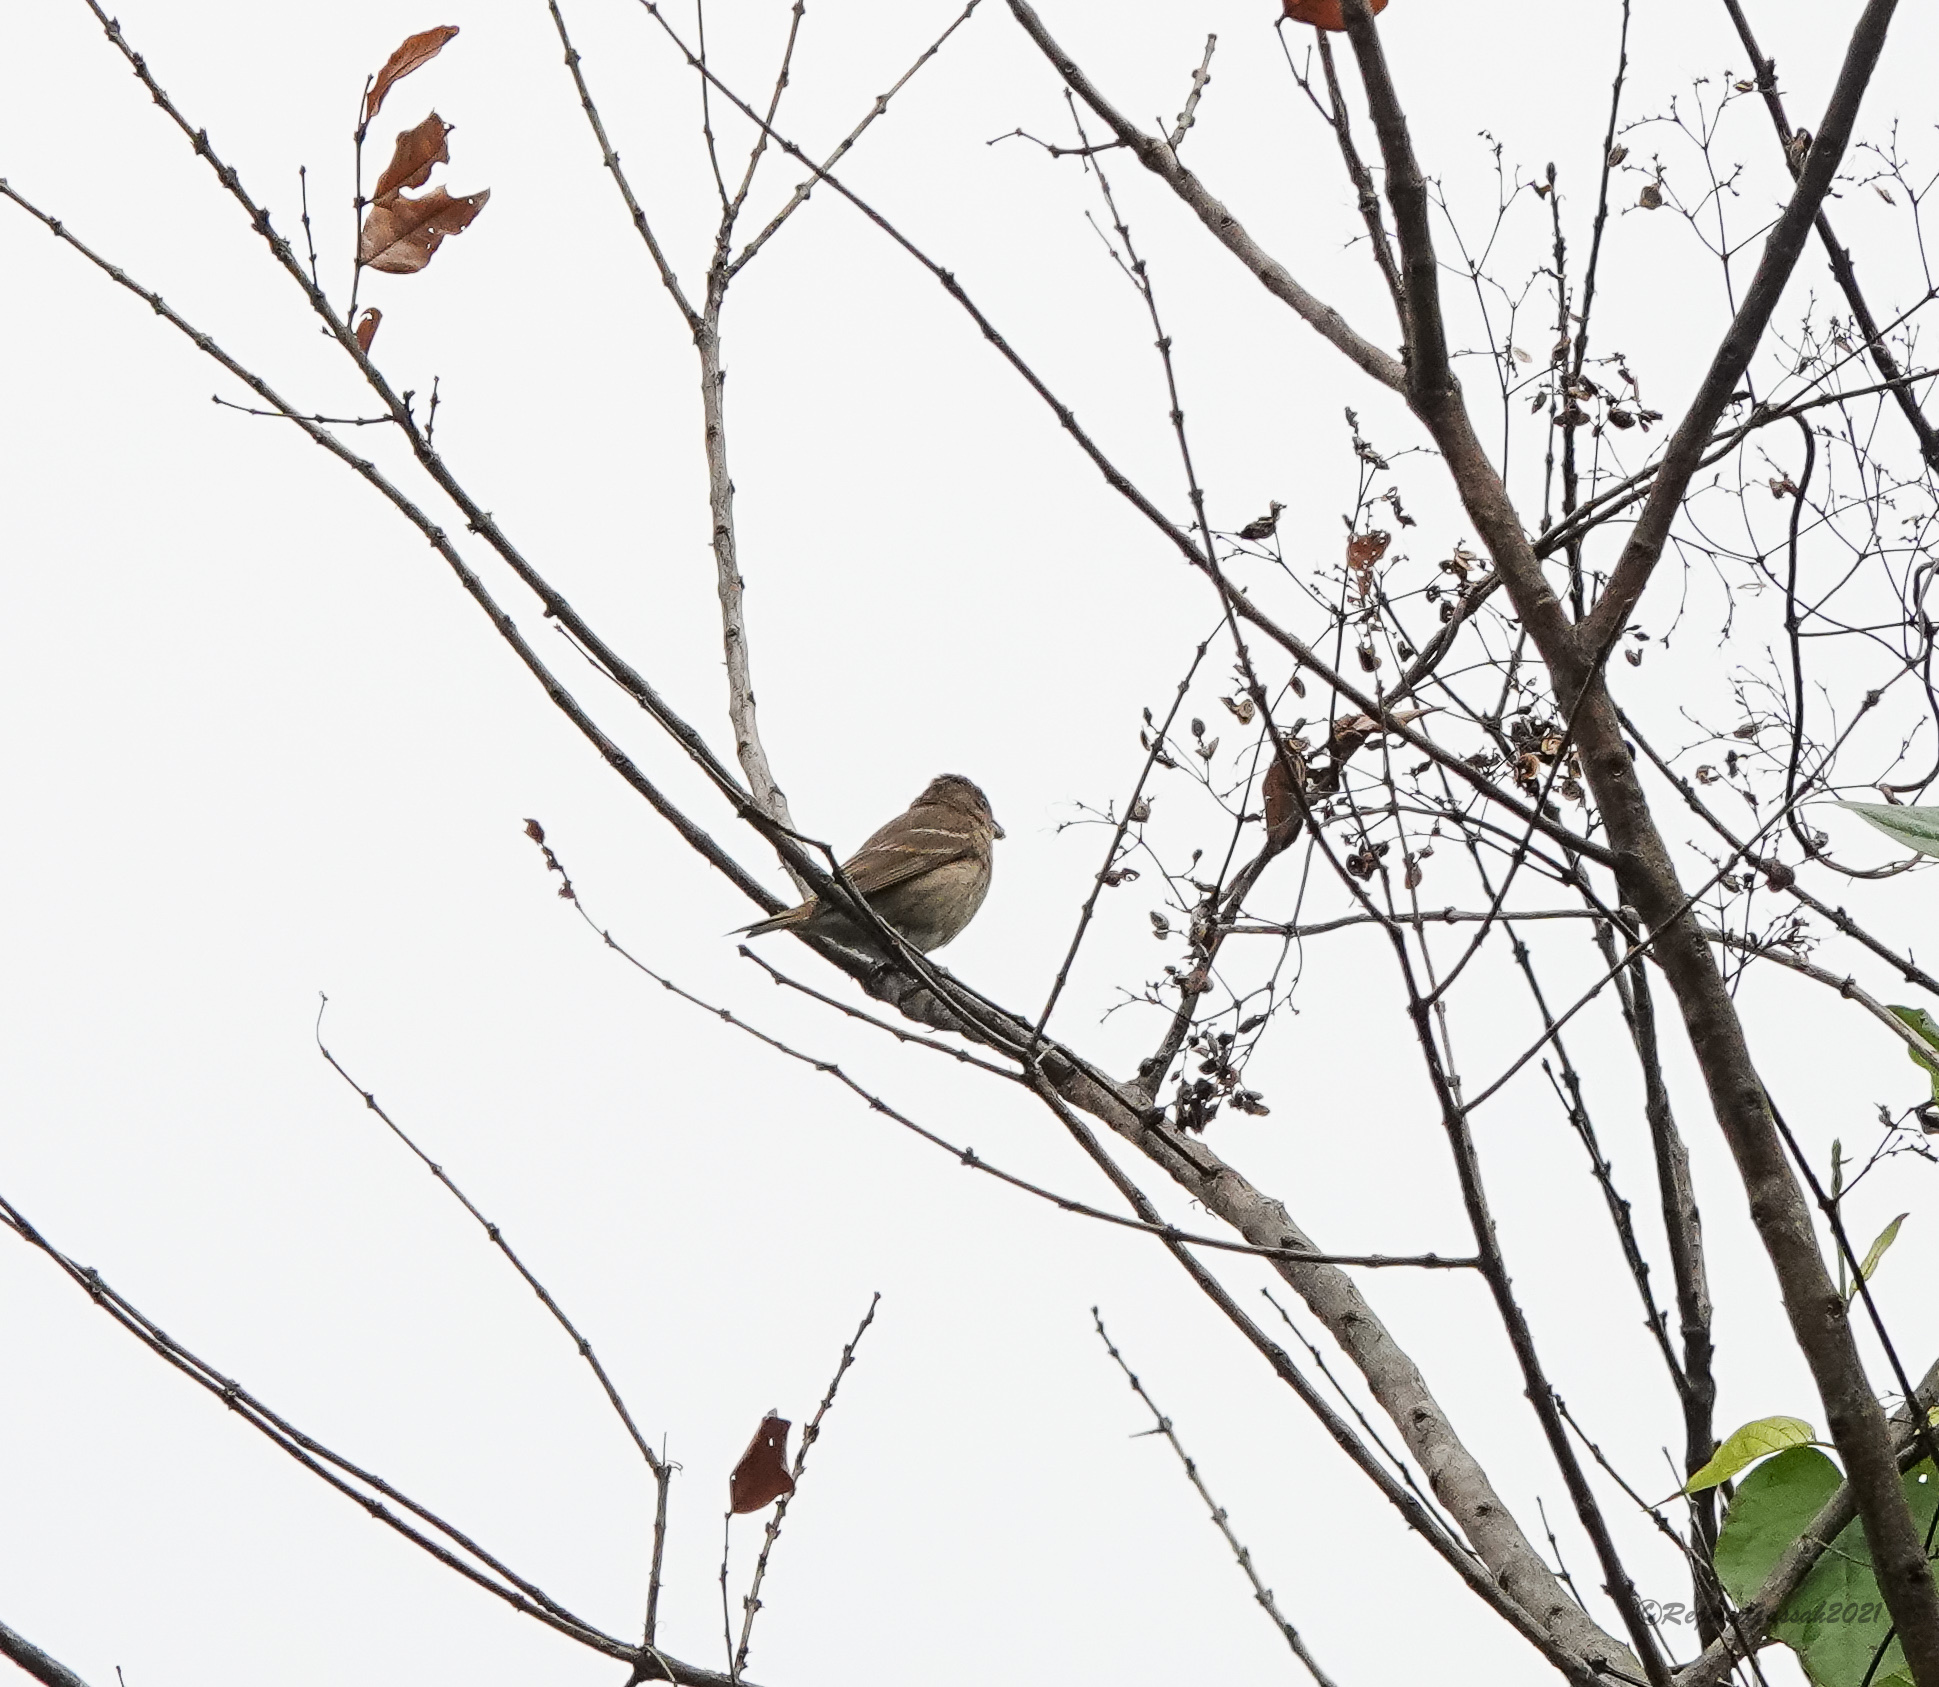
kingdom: Animalia
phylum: Chordata
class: Aves
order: Passeriformes
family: Fringillidae
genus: Carpodacus
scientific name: Carpodacus erythrinus
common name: Common rosefinch
